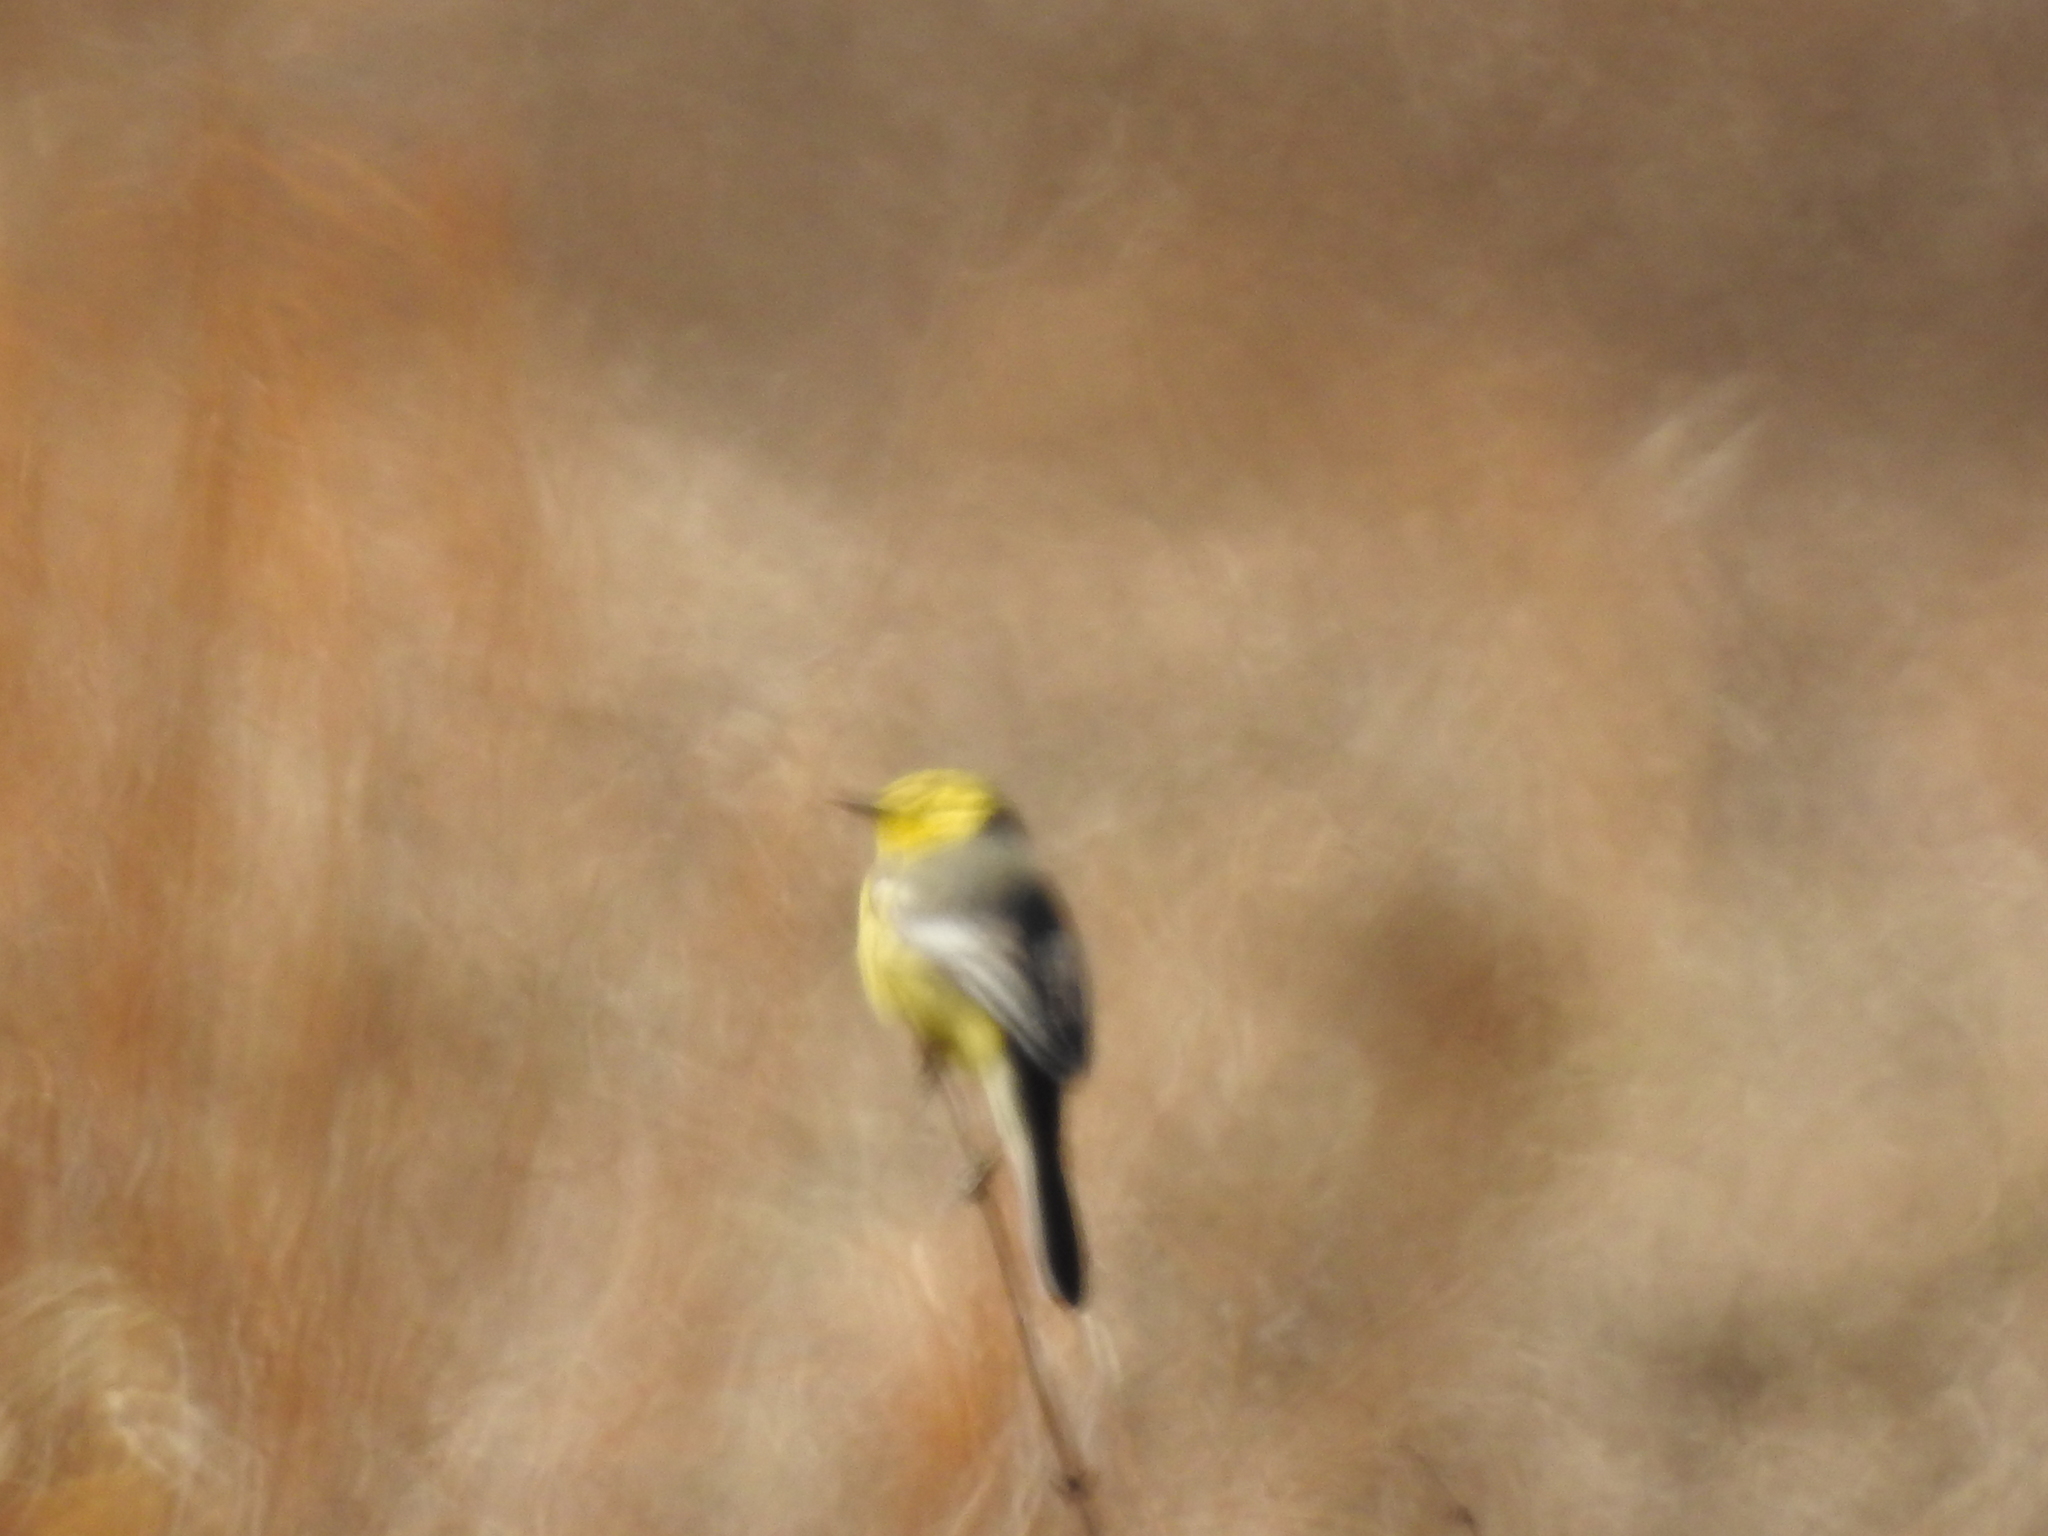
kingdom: Animalia
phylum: Chordata
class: Aves
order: Passeriformes
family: Motacillidae
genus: Motacilla
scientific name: Motacilla citreola
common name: Citrine wagtail
